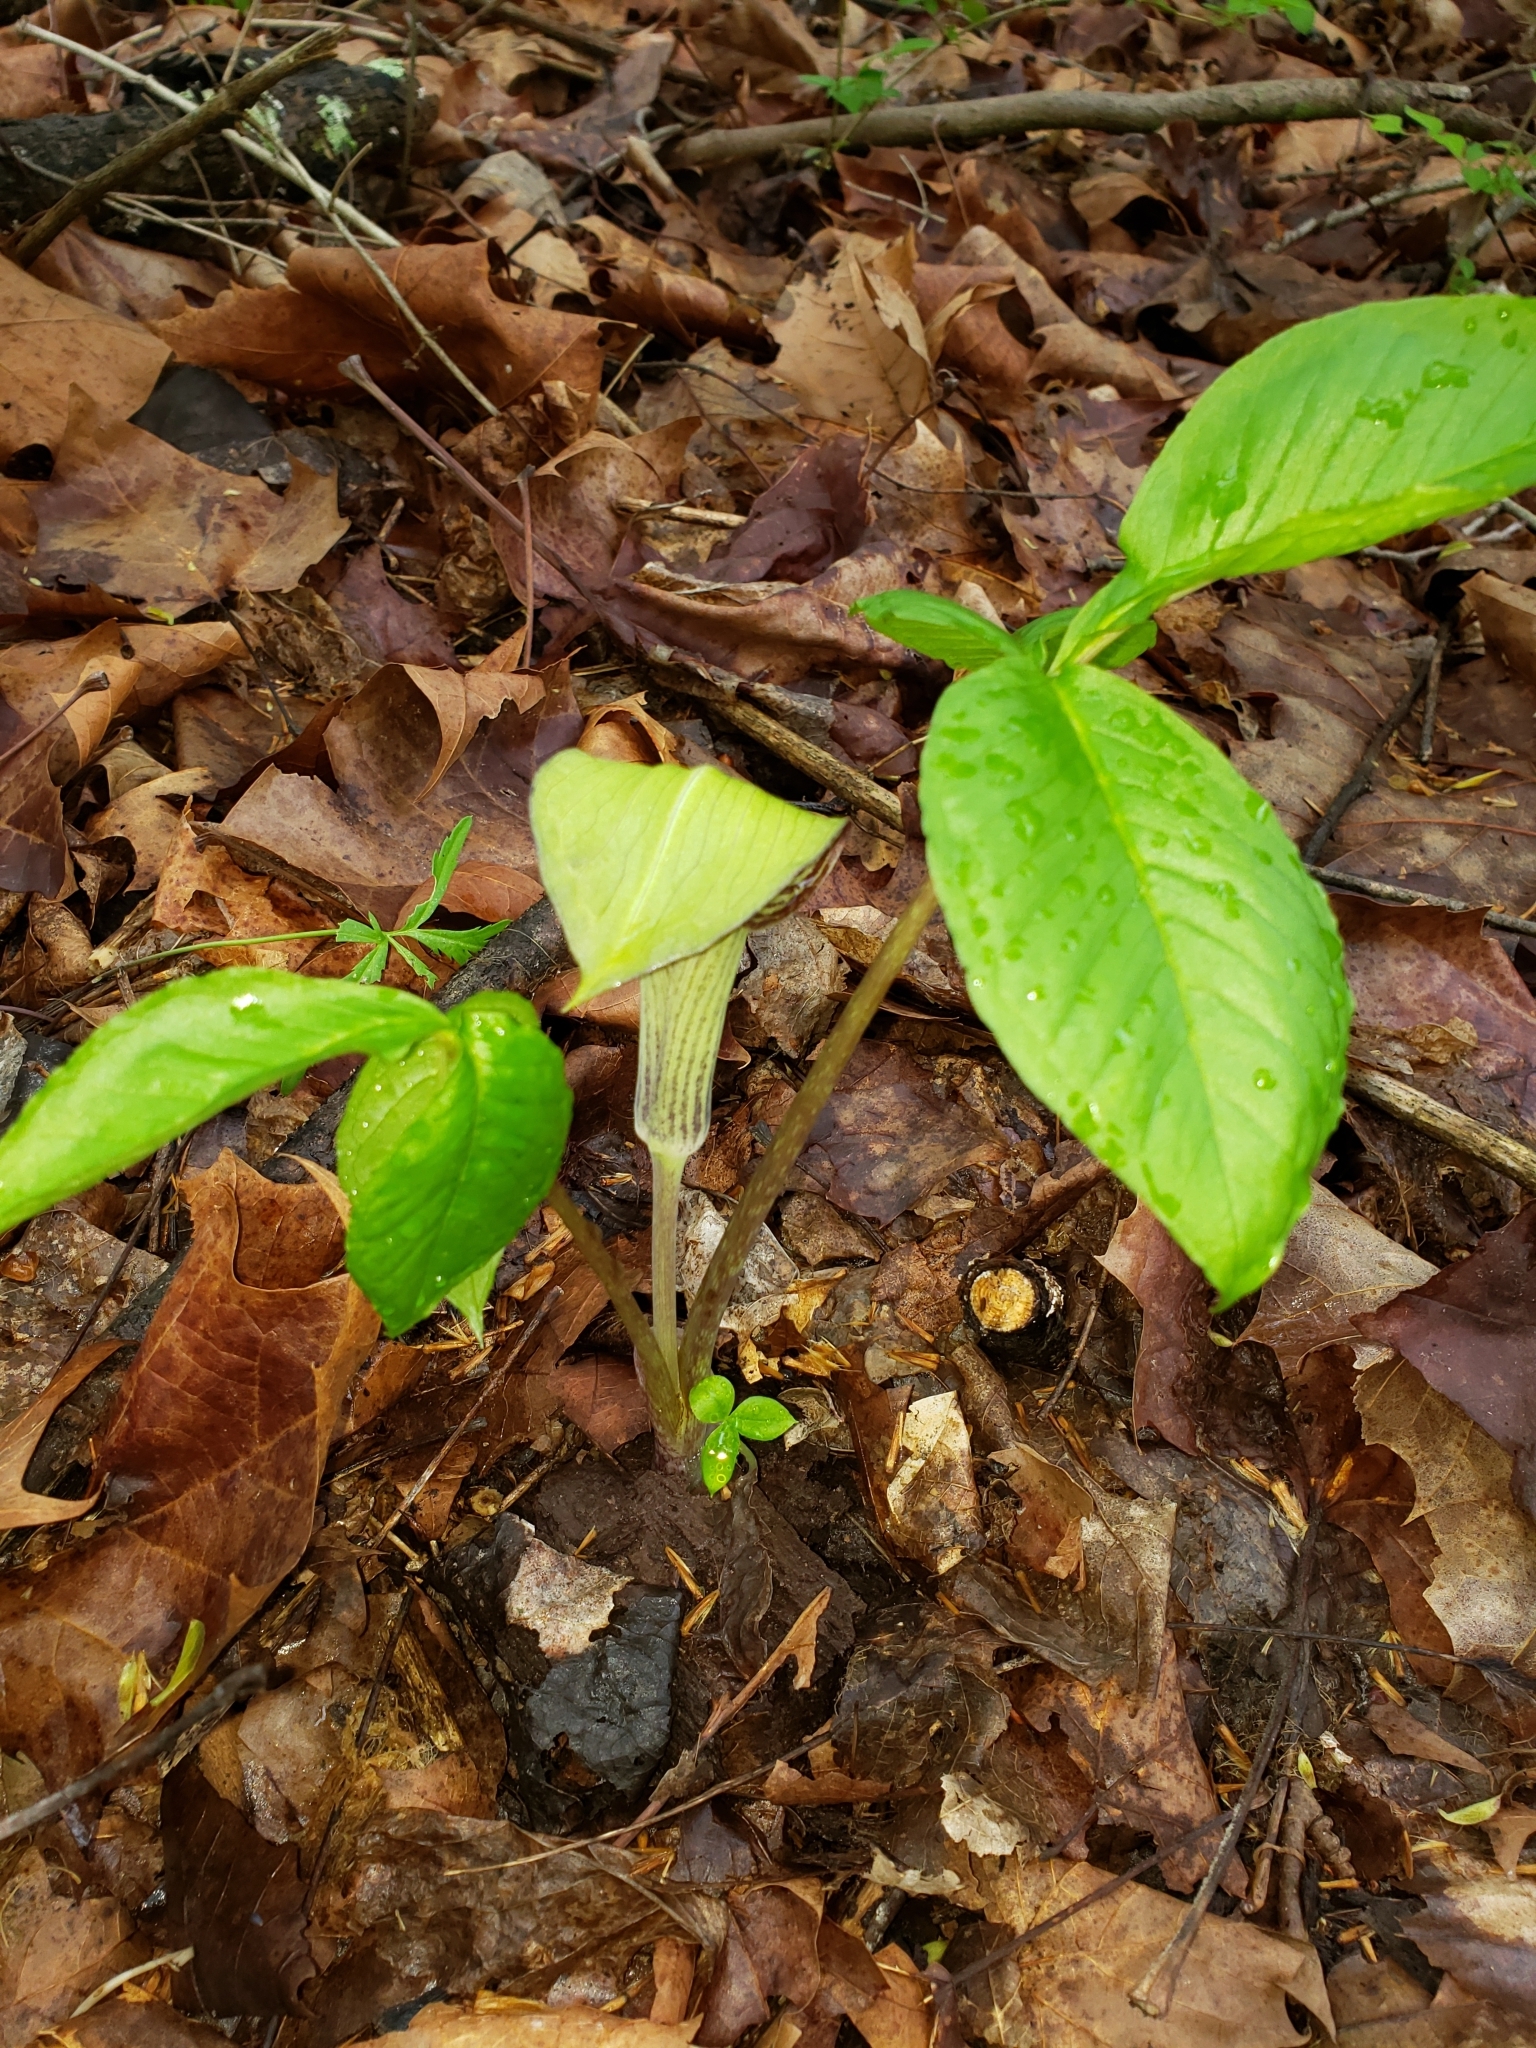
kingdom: Plantae
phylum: Tracheophyta
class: Liliopsida
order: Alismatales
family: Araceae
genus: Arisaema
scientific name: Arisaema triphyllum
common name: Jack-in-the-pulpit
